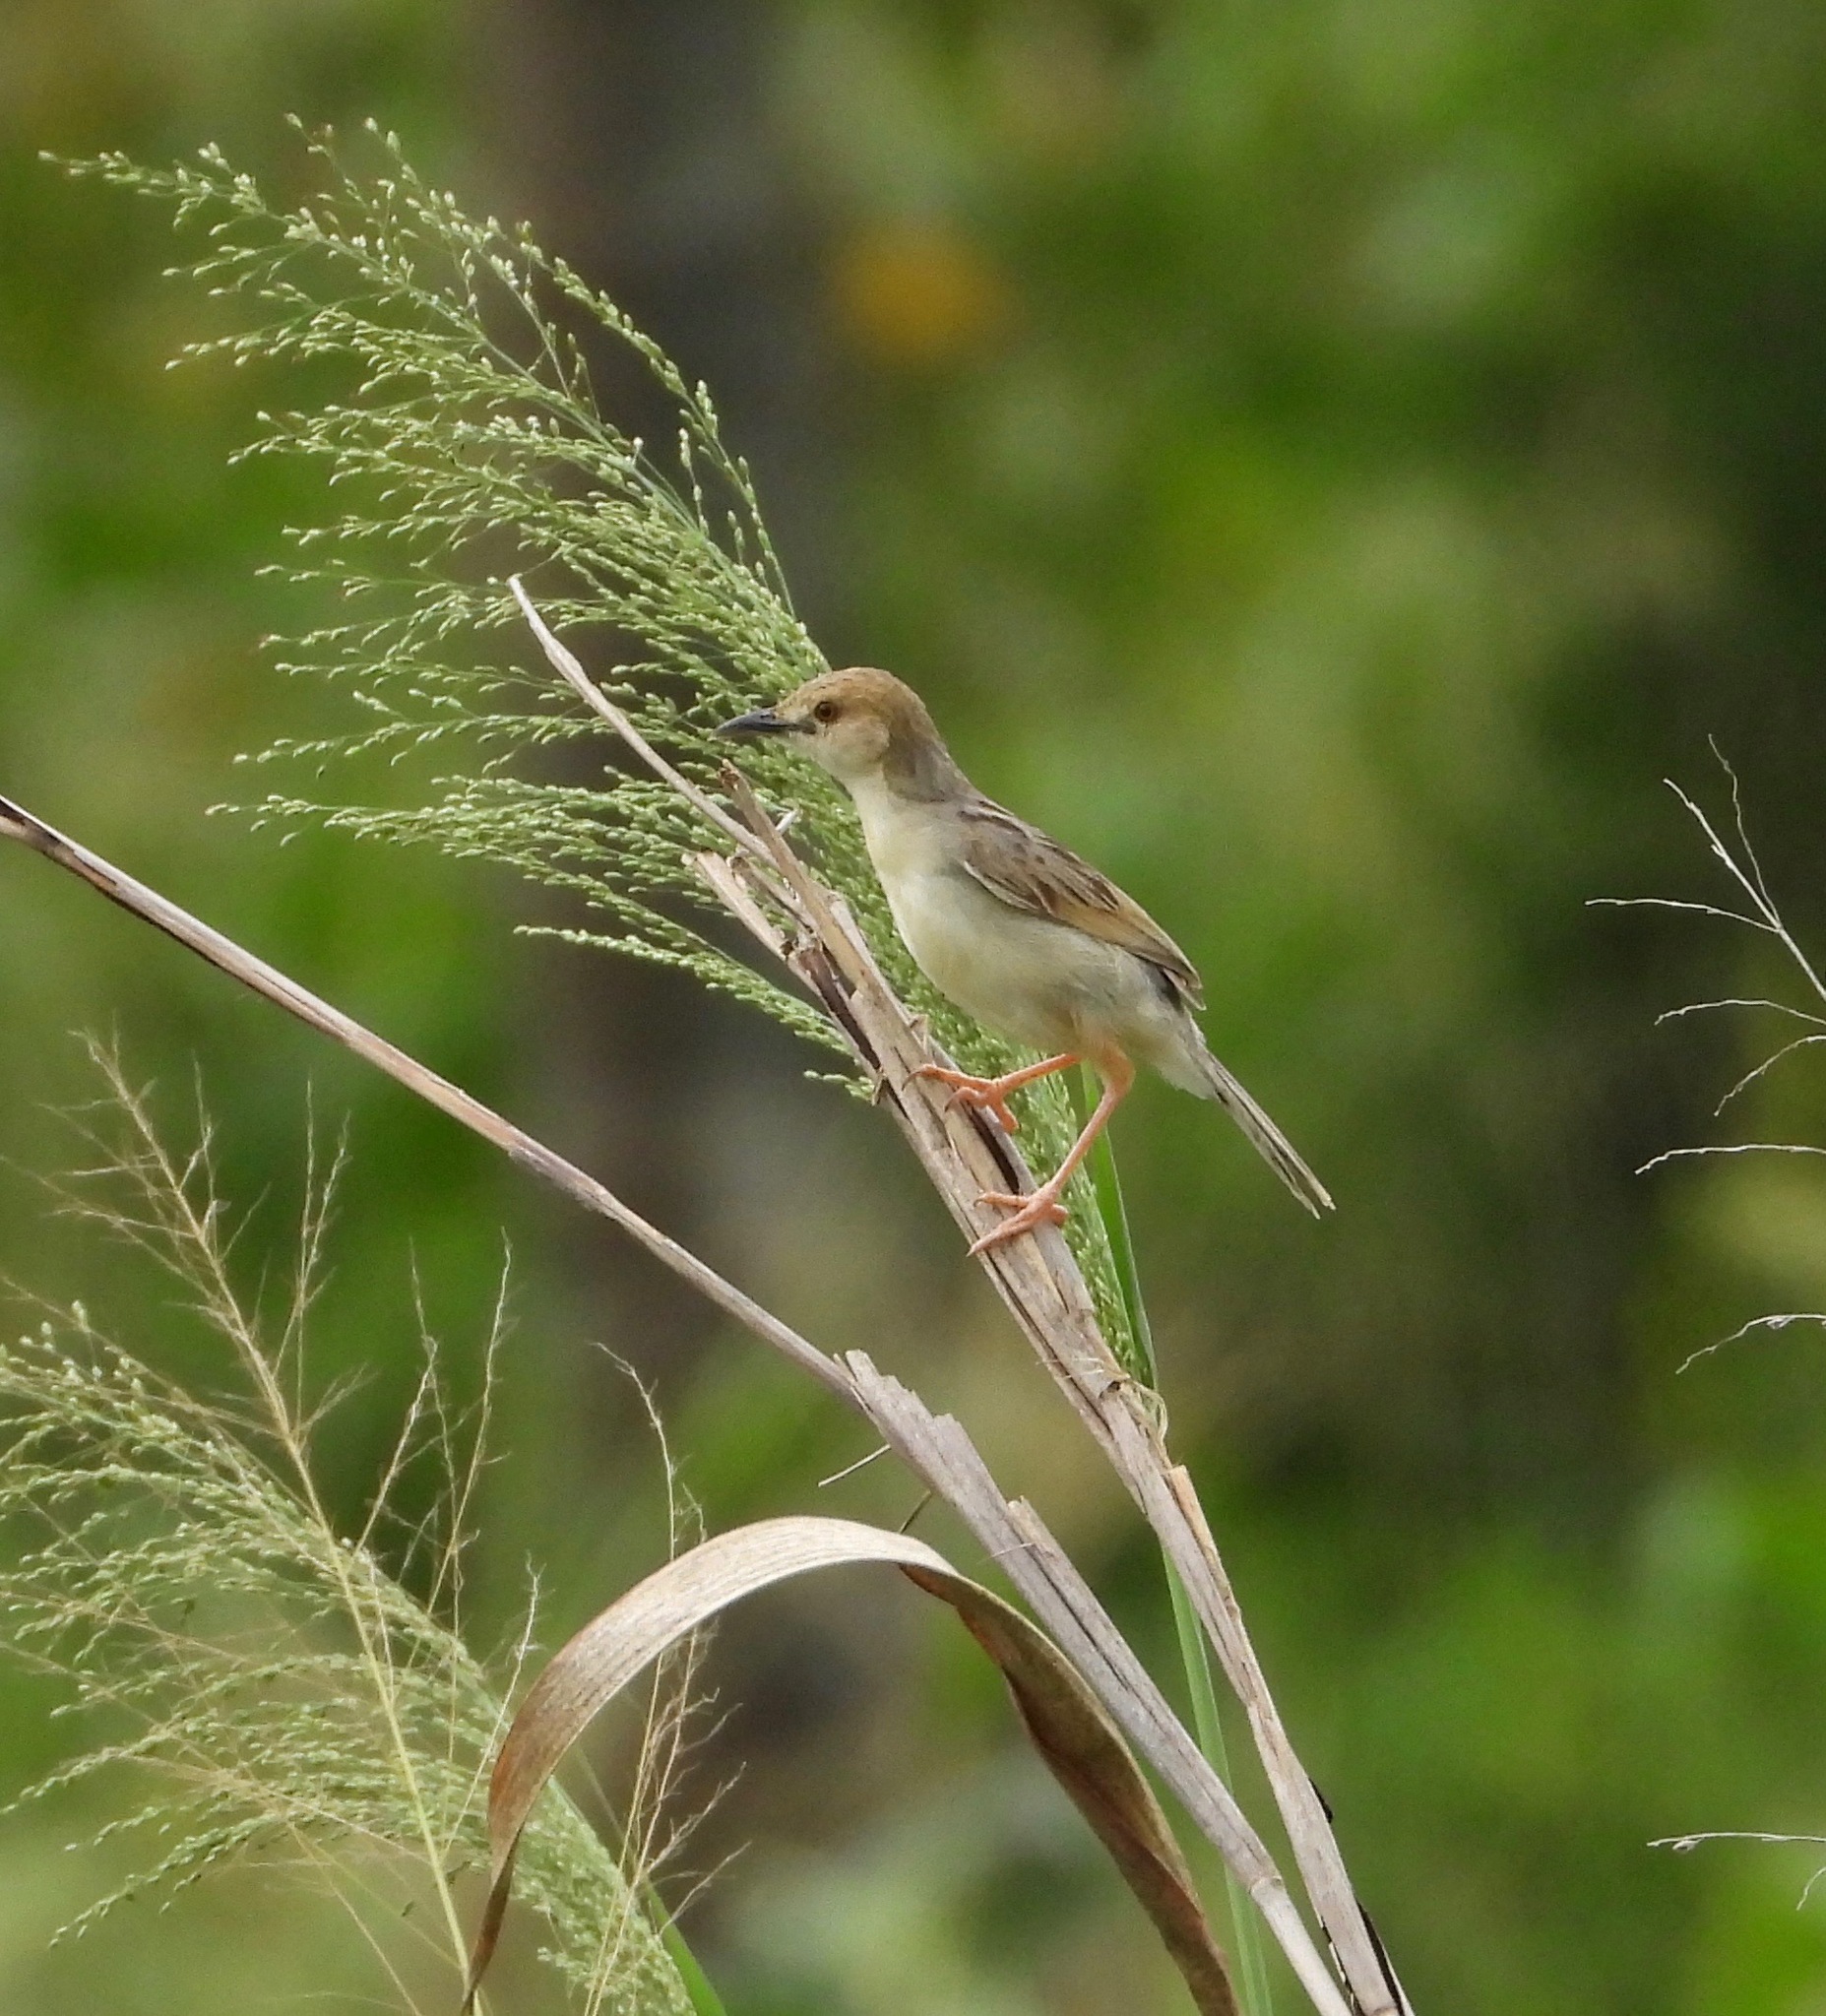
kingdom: Animalia
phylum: Chordata
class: Aves
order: Passeriformes
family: Cisticolidae
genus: Cisticola
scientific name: Cisticola haematocephalus
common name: Coastal cisticola
